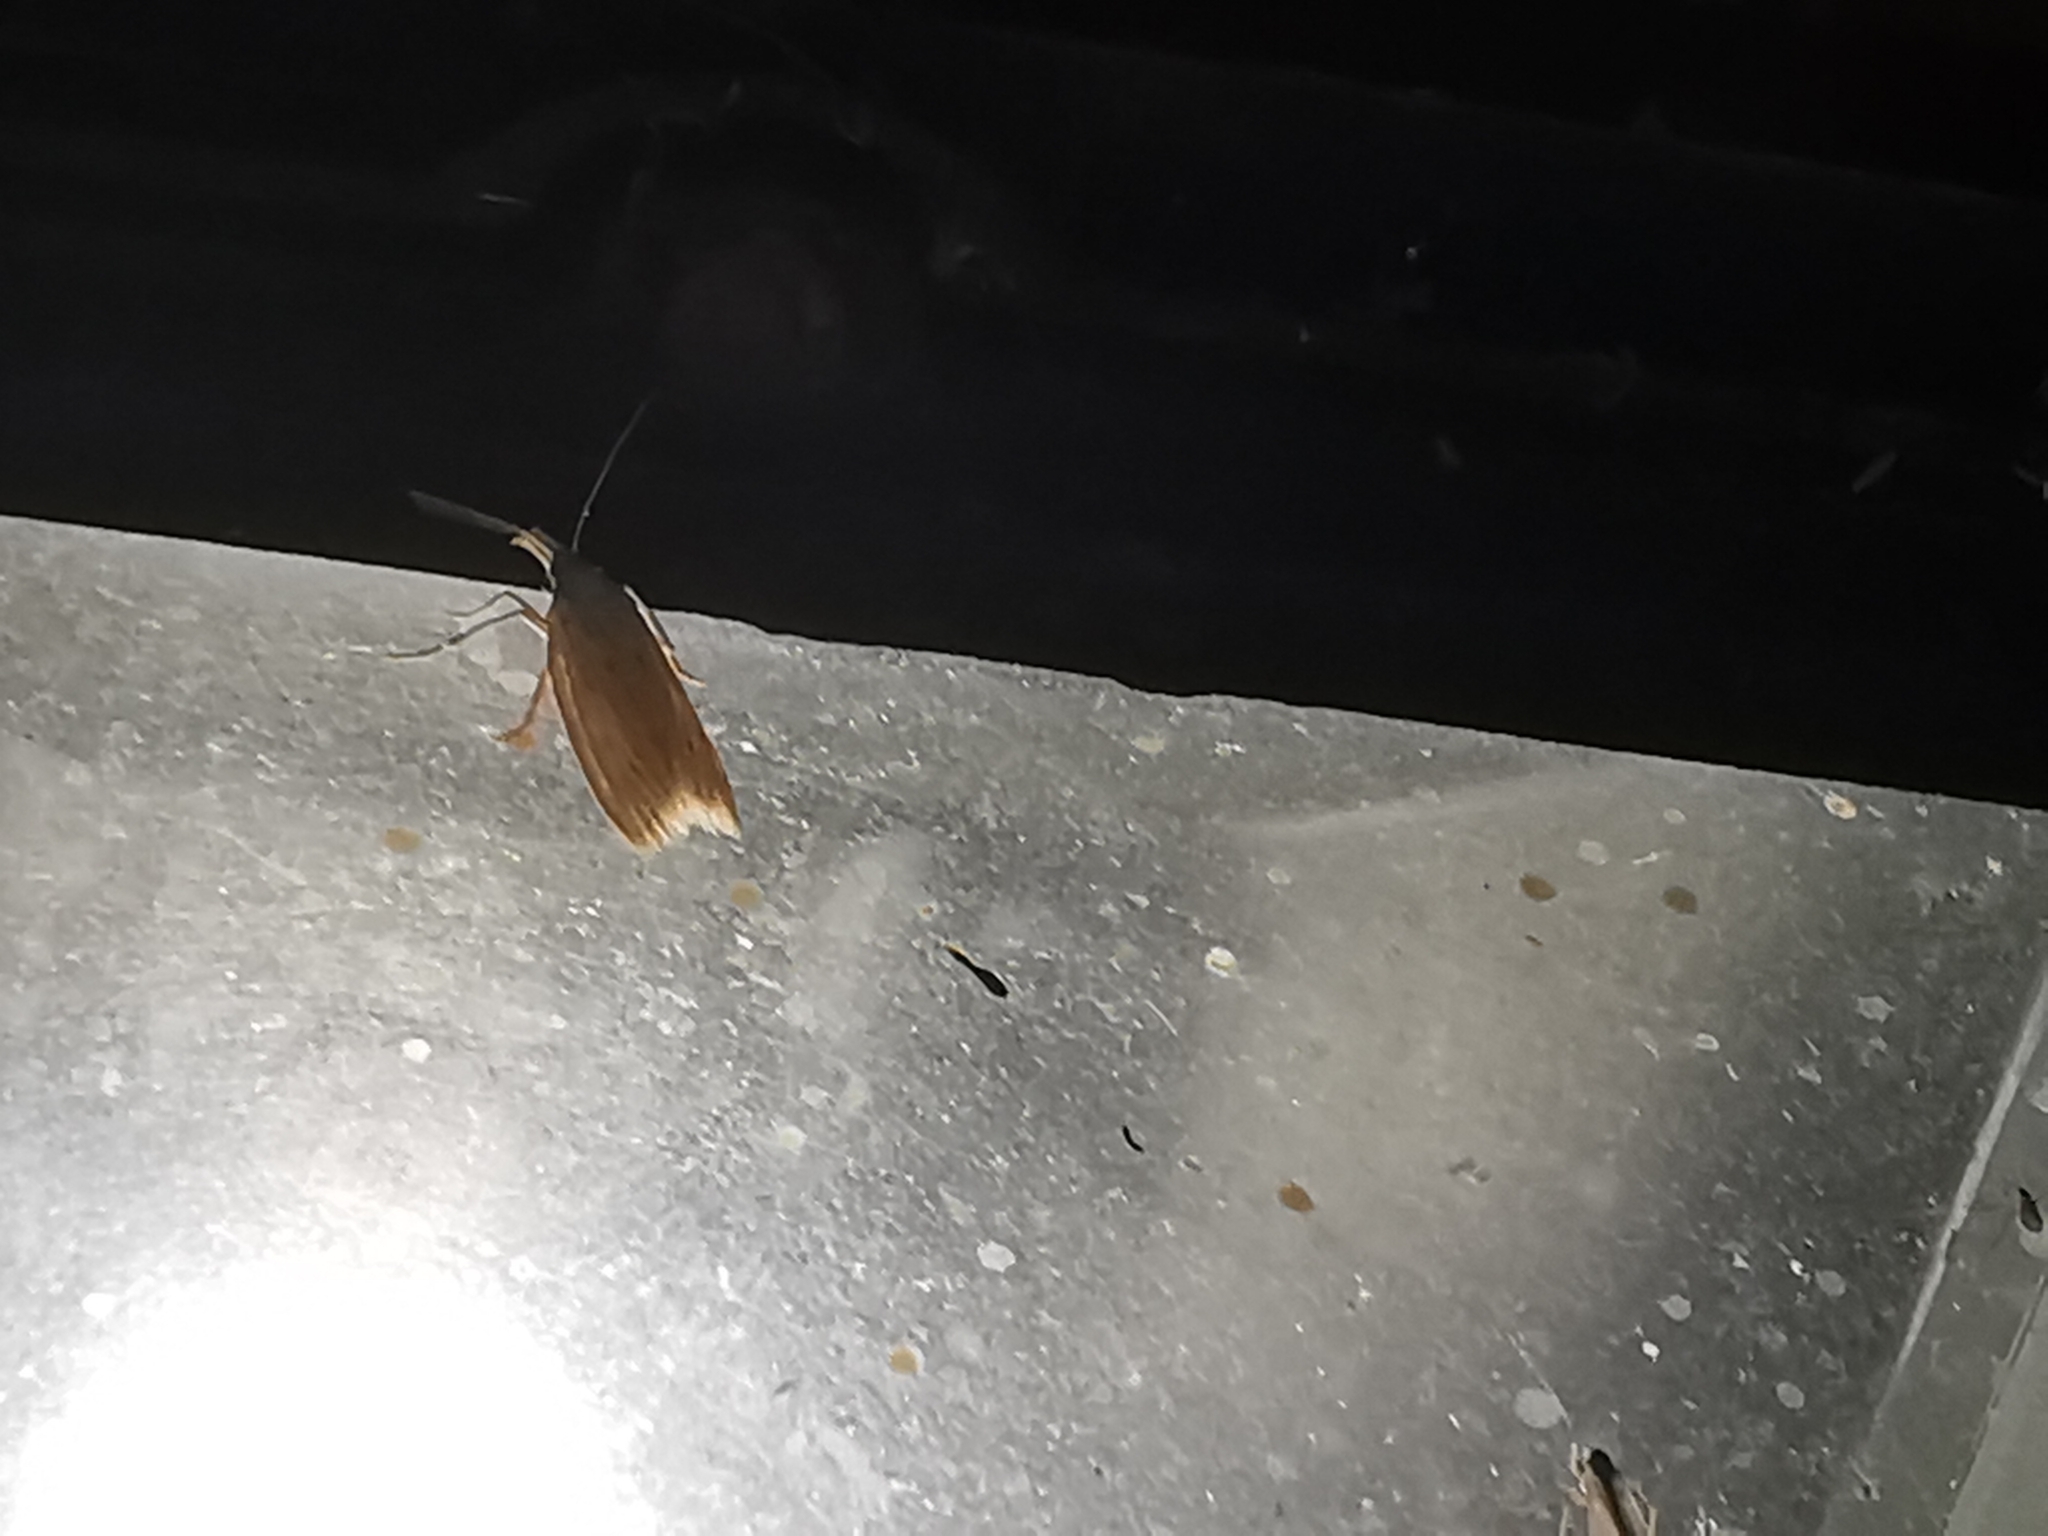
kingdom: Animalia
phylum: Arthropoda
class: Insecta
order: Lepidoptera
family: Cosmopterigidae
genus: Limnaecia
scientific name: Limnaecia phragmitella
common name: Bulrush cosmet
